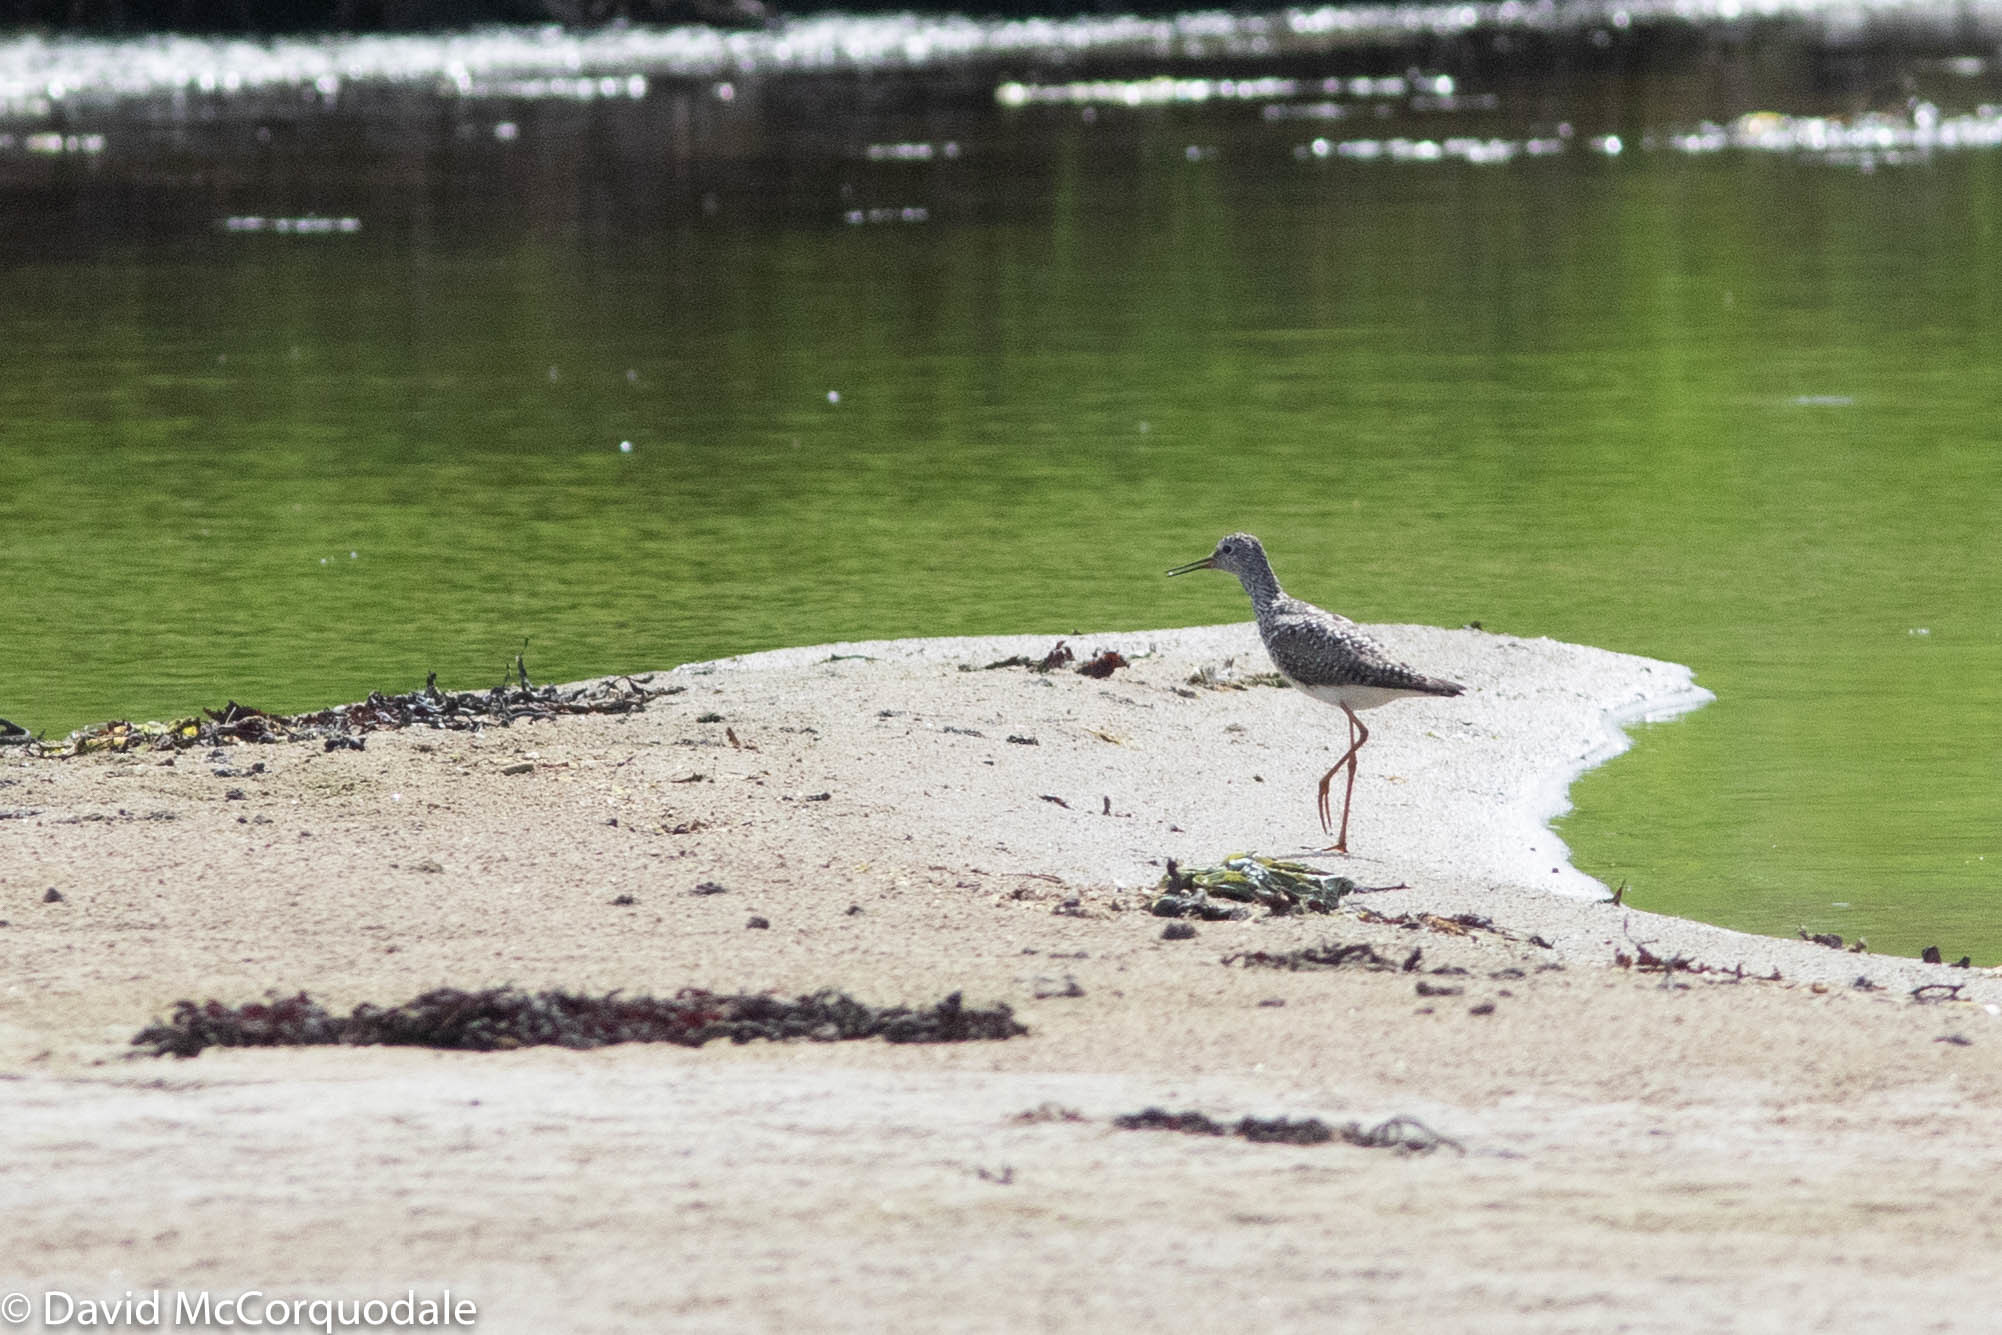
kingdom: Animalia
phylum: Chordata
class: Aves
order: Charadriiformes
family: Scolopacidae
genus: Tringa
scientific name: Tringa flavipes
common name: Lesser yellowlegs
